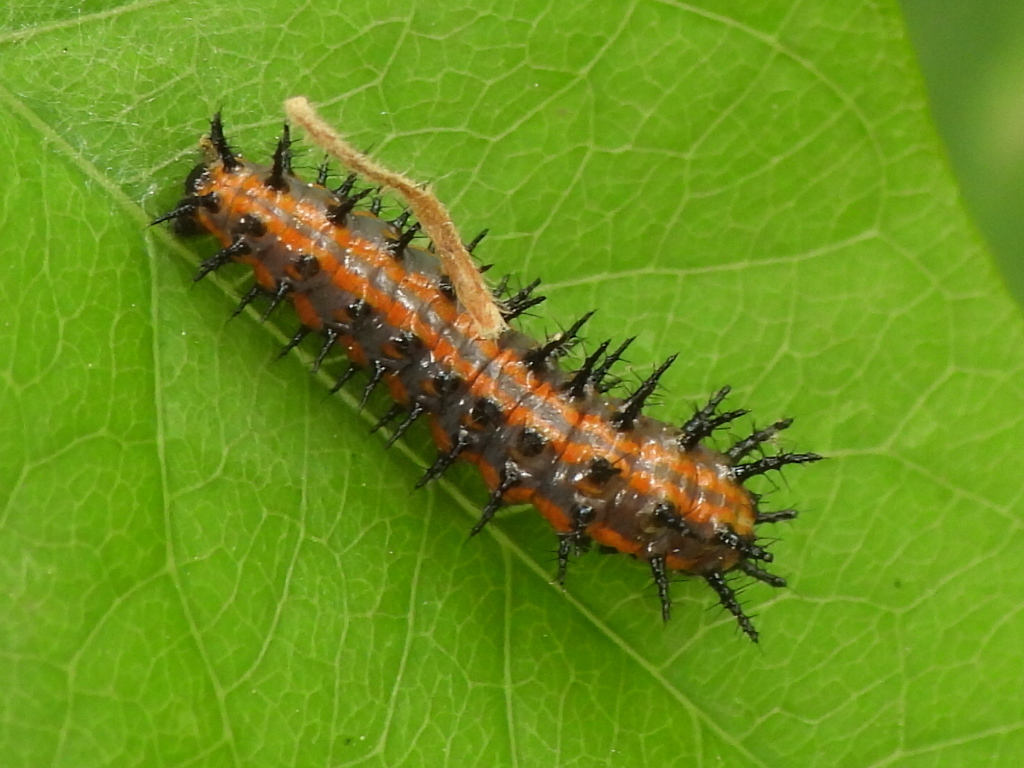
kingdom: Animalia
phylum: Arthropoda
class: Insecta
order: Lepidoptera
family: Nymphalidae
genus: Dione
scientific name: Dione vanillae
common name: Gulf fritillary
